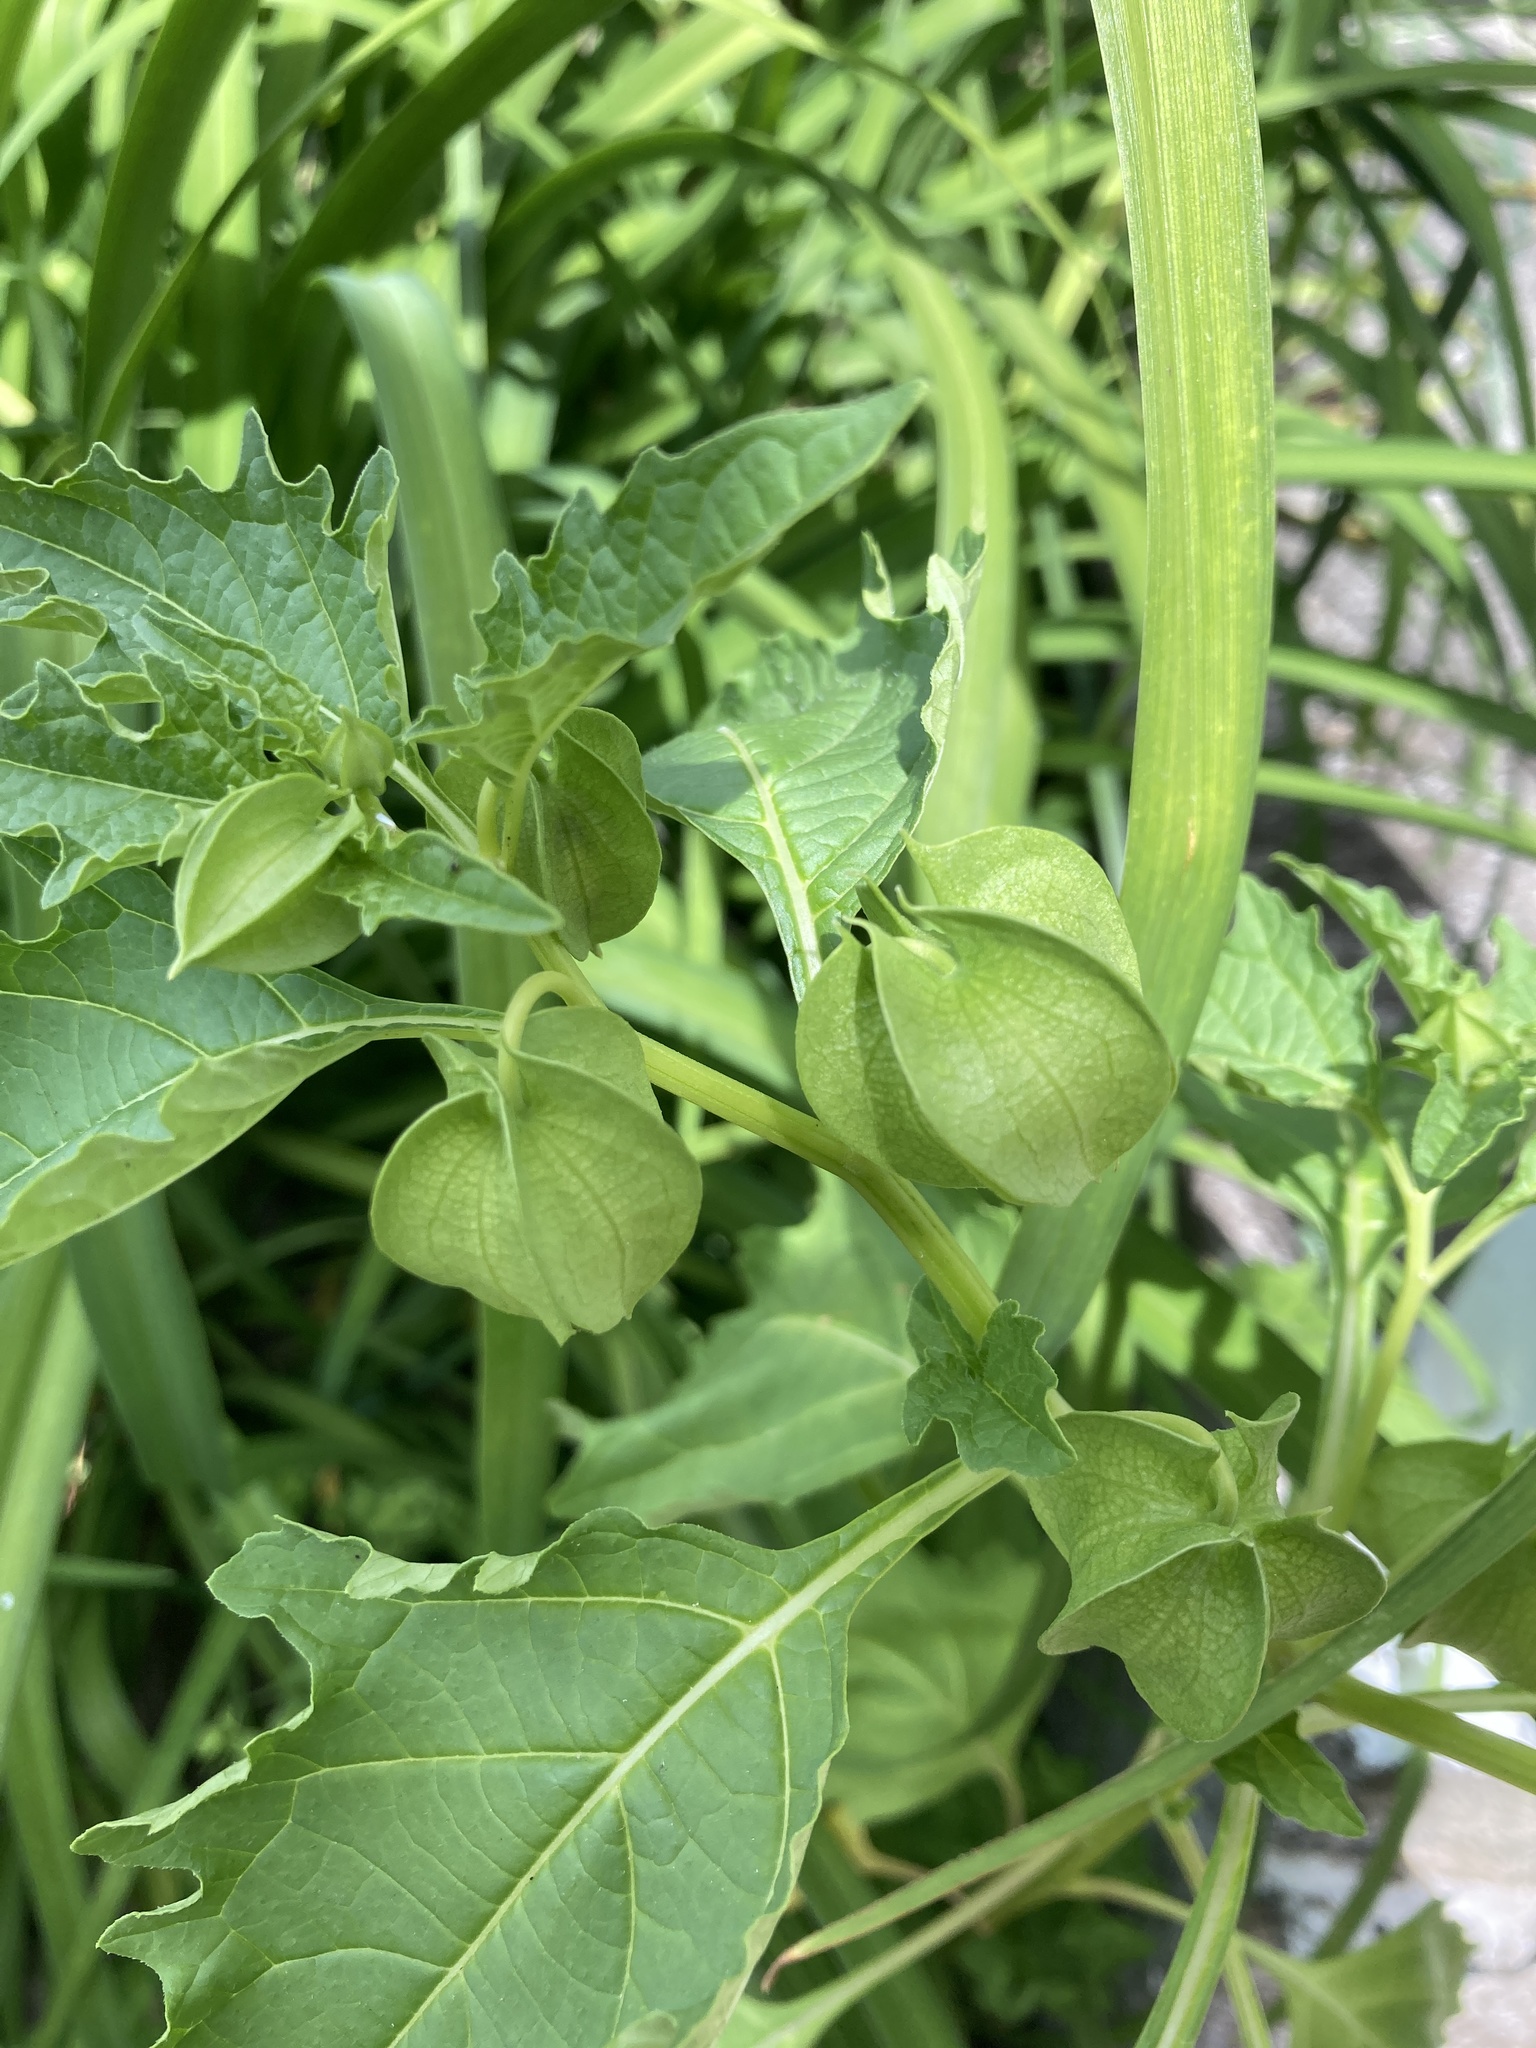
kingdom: Plantae
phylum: Tracheophyta
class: Magnoliopsida
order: Solanales
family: Solanaceae
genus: Nicandra
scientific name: Nicandra physalodes
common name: Apple-of-peru
